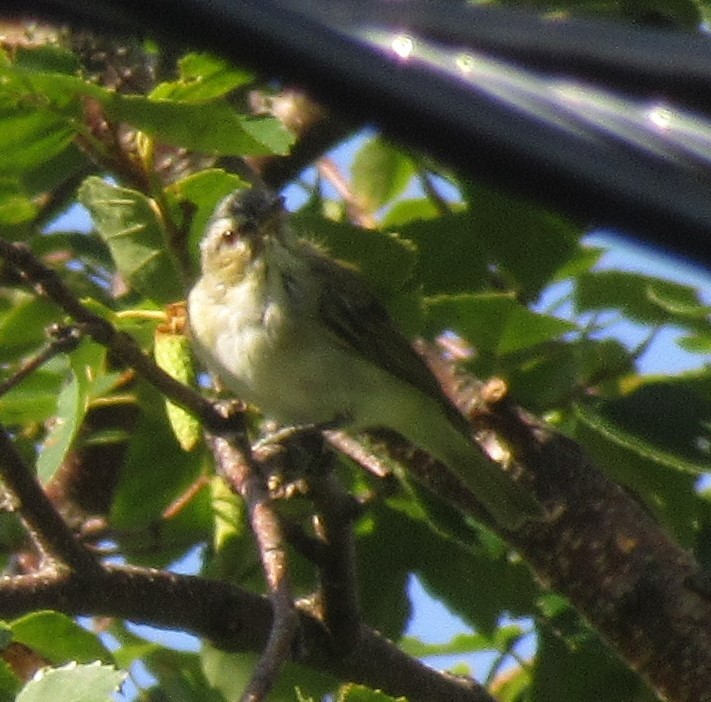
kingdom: Animalia
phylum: Chordata
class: Aves
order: Passeriformes
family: Vireonidae
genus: Vireo
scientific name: Vireo olivaceus
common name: Red-eyed vireo
